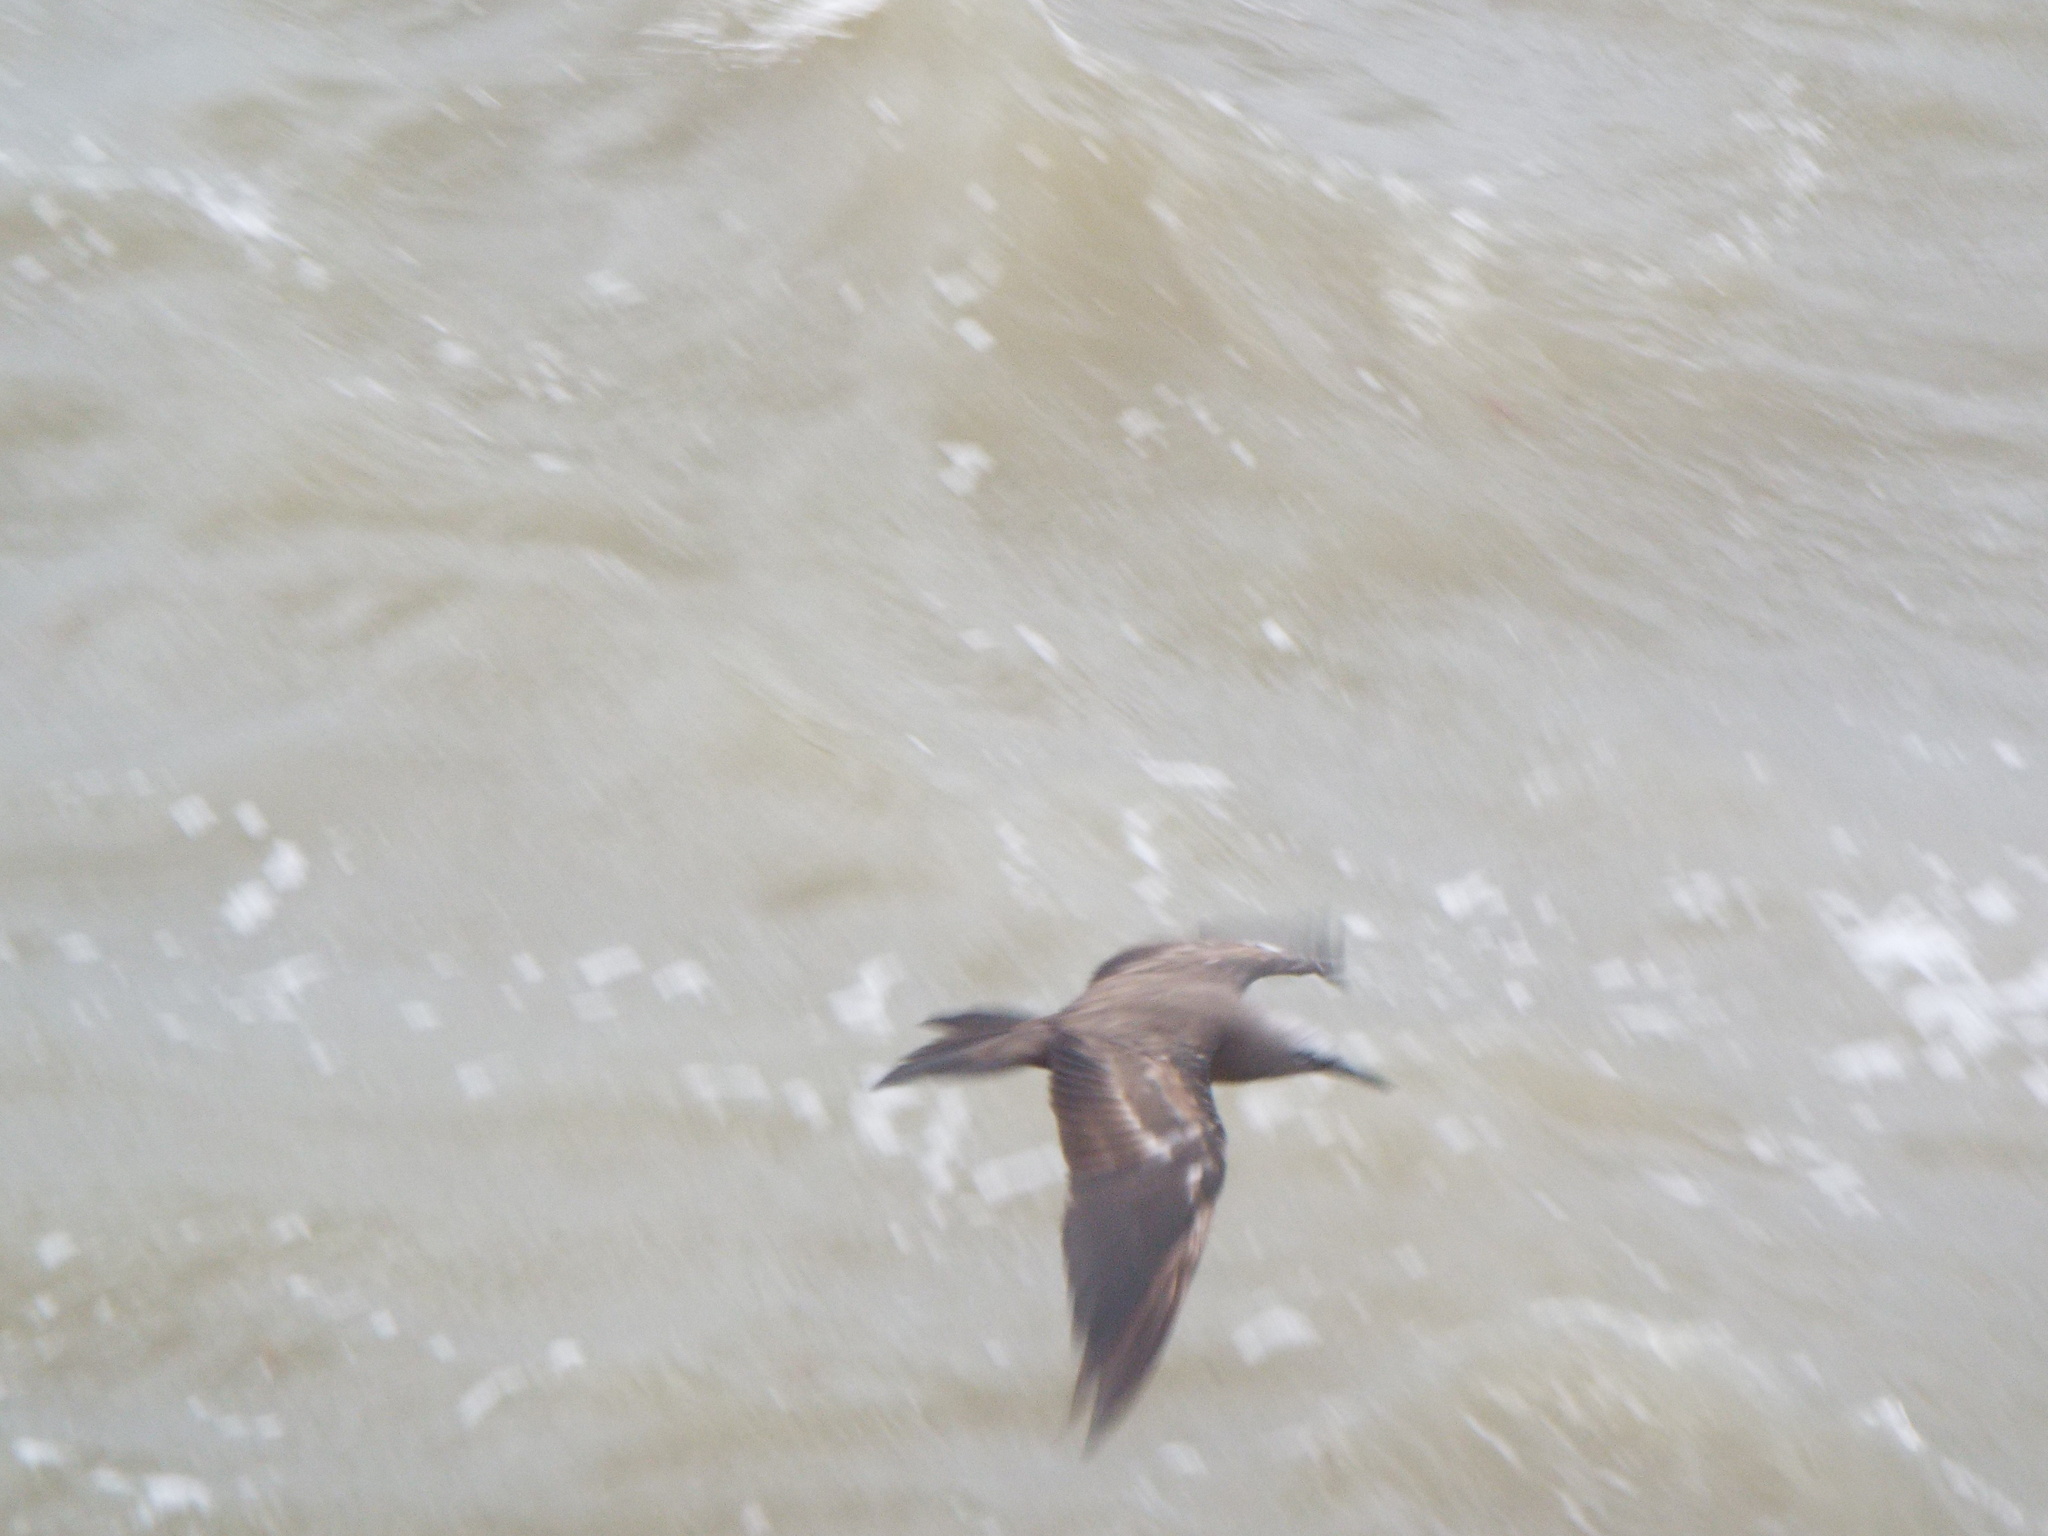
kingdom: Animalia
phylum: Chordata
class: Aves
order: Charadriiformes
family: Laridae
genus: Anous
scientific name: Anous stolidus
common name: Brown noddy
